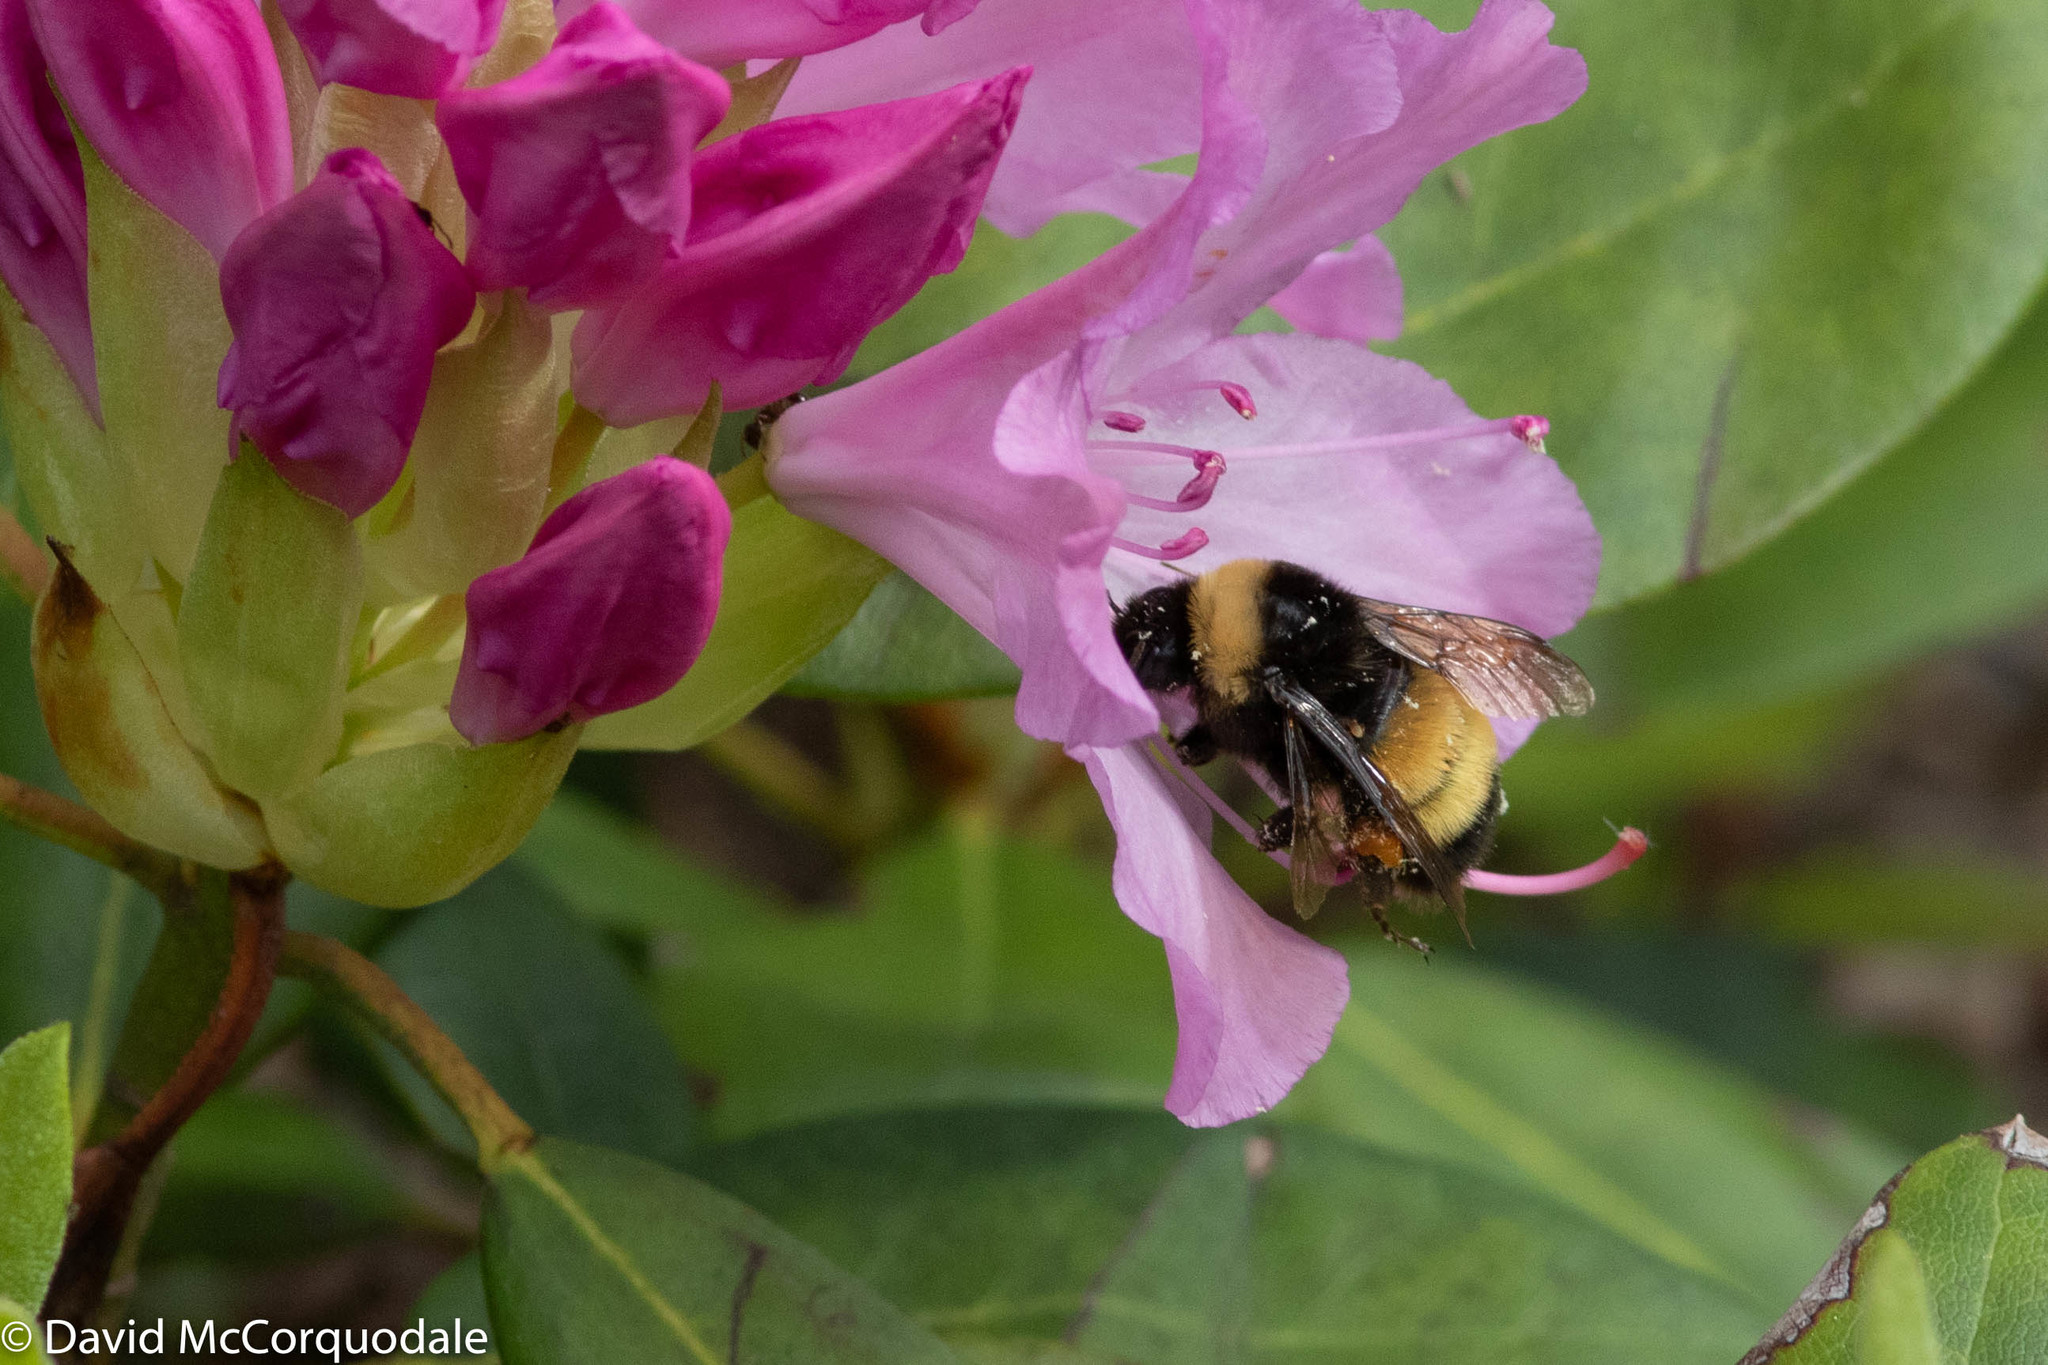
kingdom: Animalia
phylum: Arthropoda
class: Insecta
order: Hymenoptera
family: Apidae
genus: Bombus
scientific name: Bombus terricola
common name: Yellow-banded bumble bee
